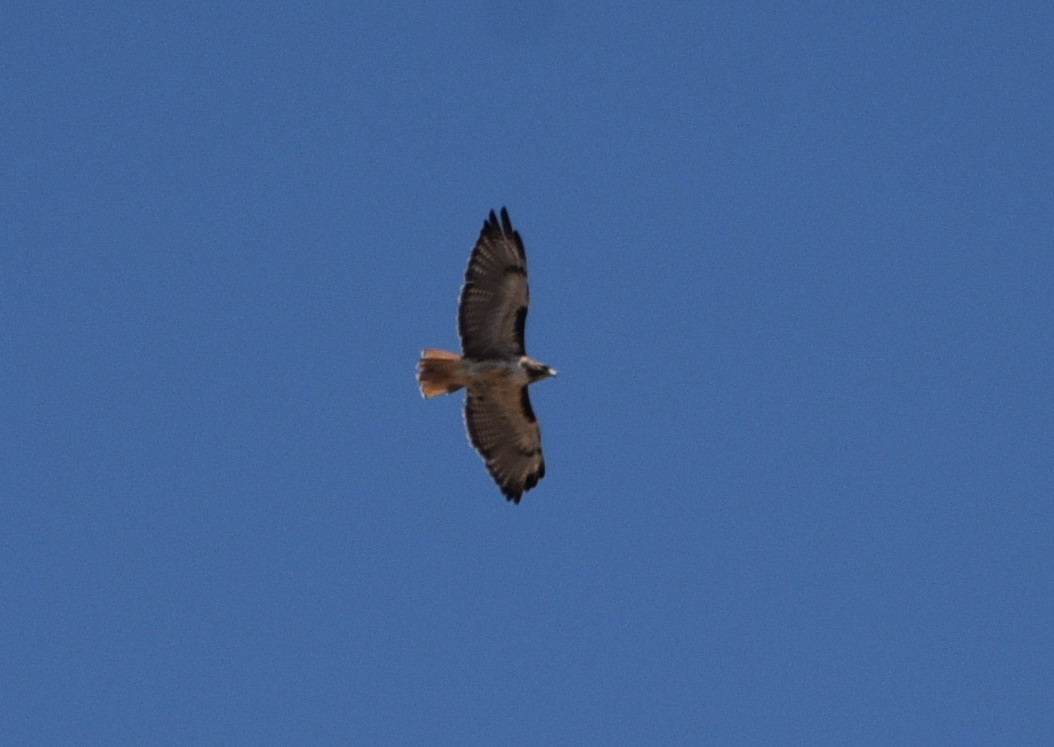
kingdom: Animalia
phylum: Chordata
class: Aves
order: Accipitriformes
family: Accipitridae
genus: Buteo
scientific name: Buteo jamaicensis
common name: Red-tailed hawk
